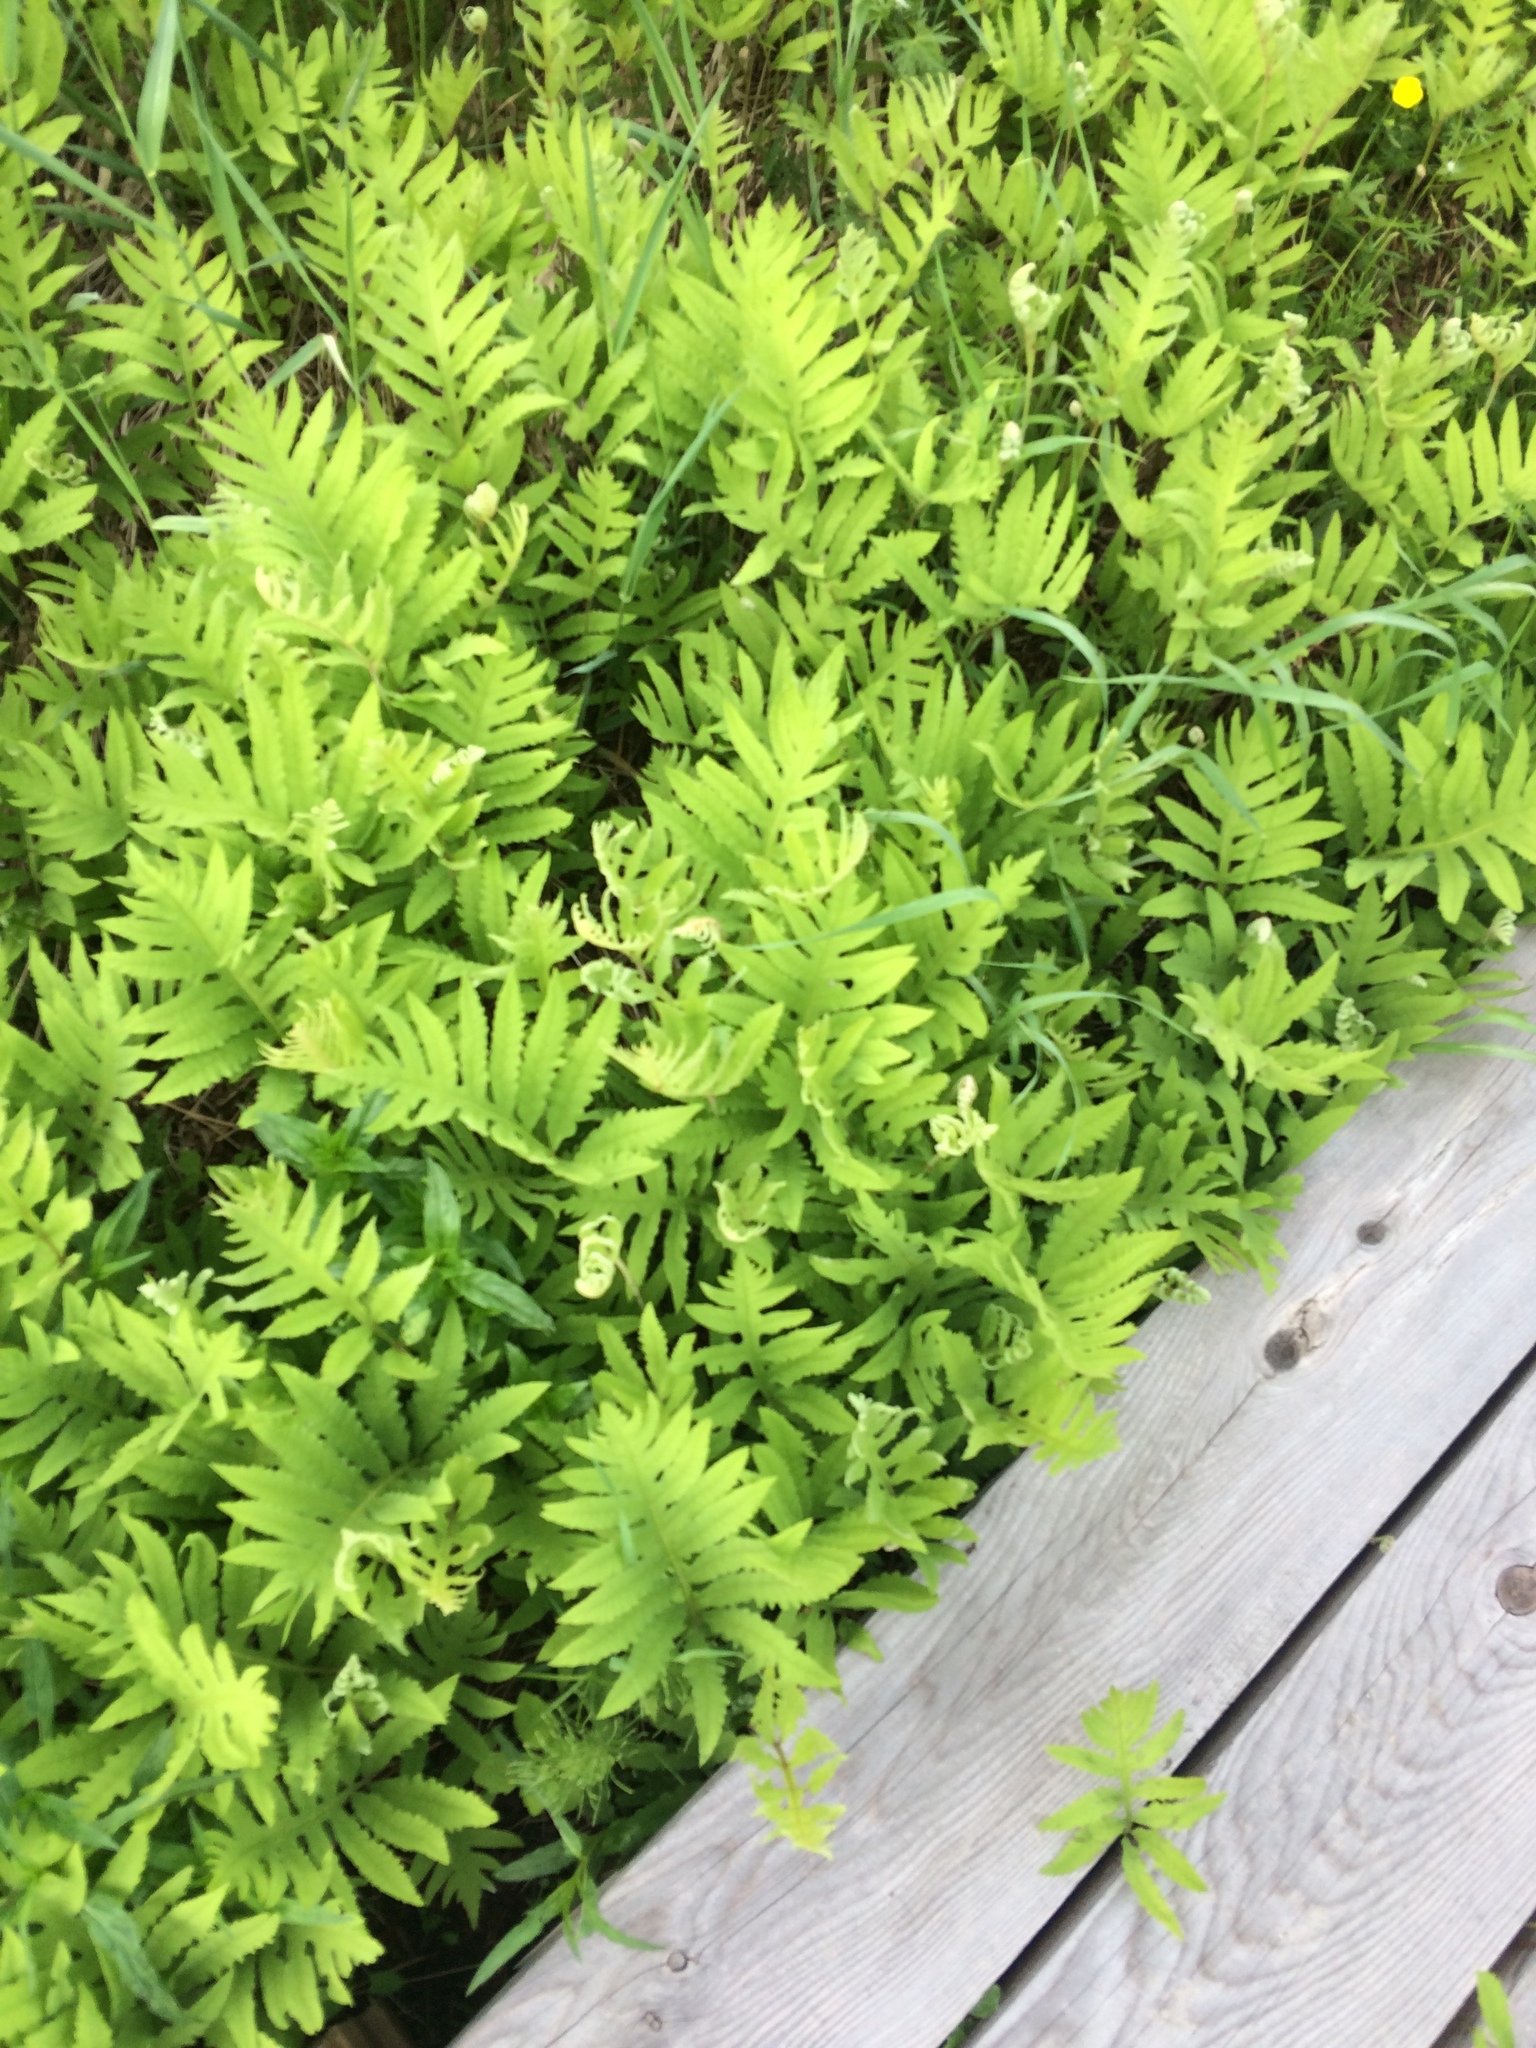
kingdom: Plantae
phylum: Tracheophyta
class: Polypodiopsida
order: Polypodiales
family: Onocleaceae
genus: Onoclea
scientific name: Onoclea sensibilis
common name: Sensitive fern
